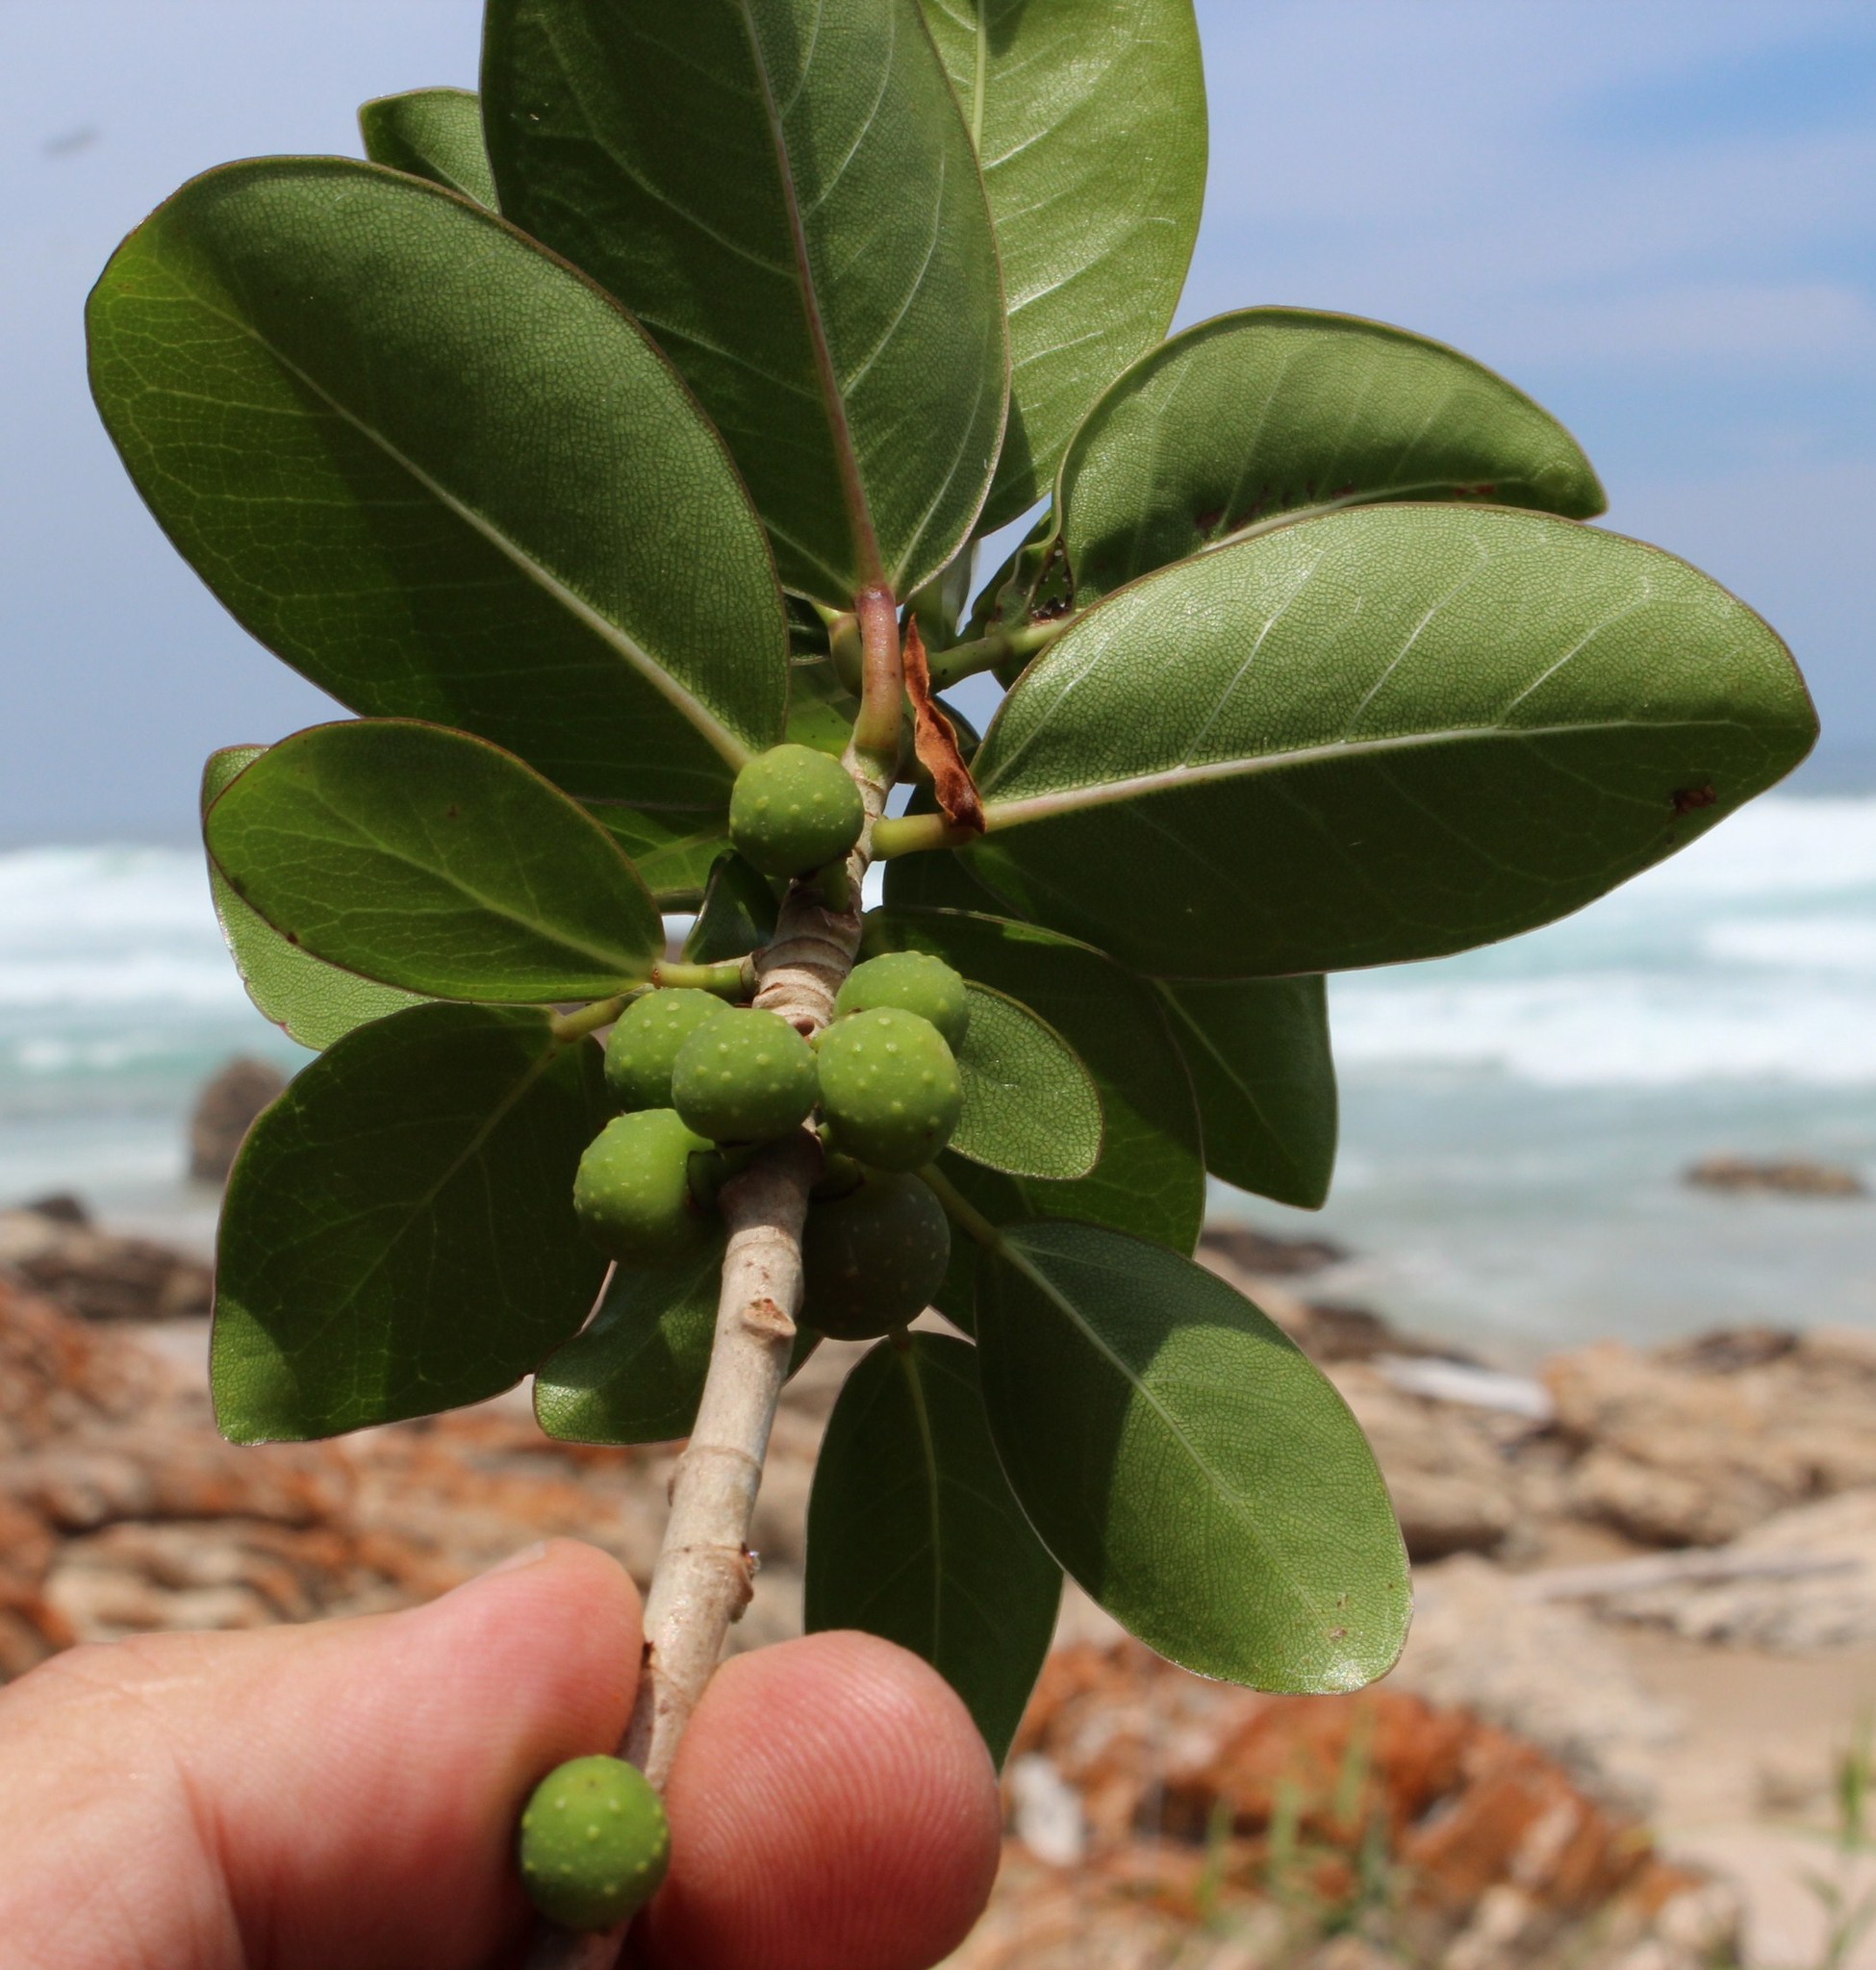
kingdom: Plantae
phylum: Tracheophyta
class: Magnoliopsida
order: Rosales
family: Moraceae
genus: Ficus
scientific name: Ficus burtt-davyi
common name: Scrambling fig
